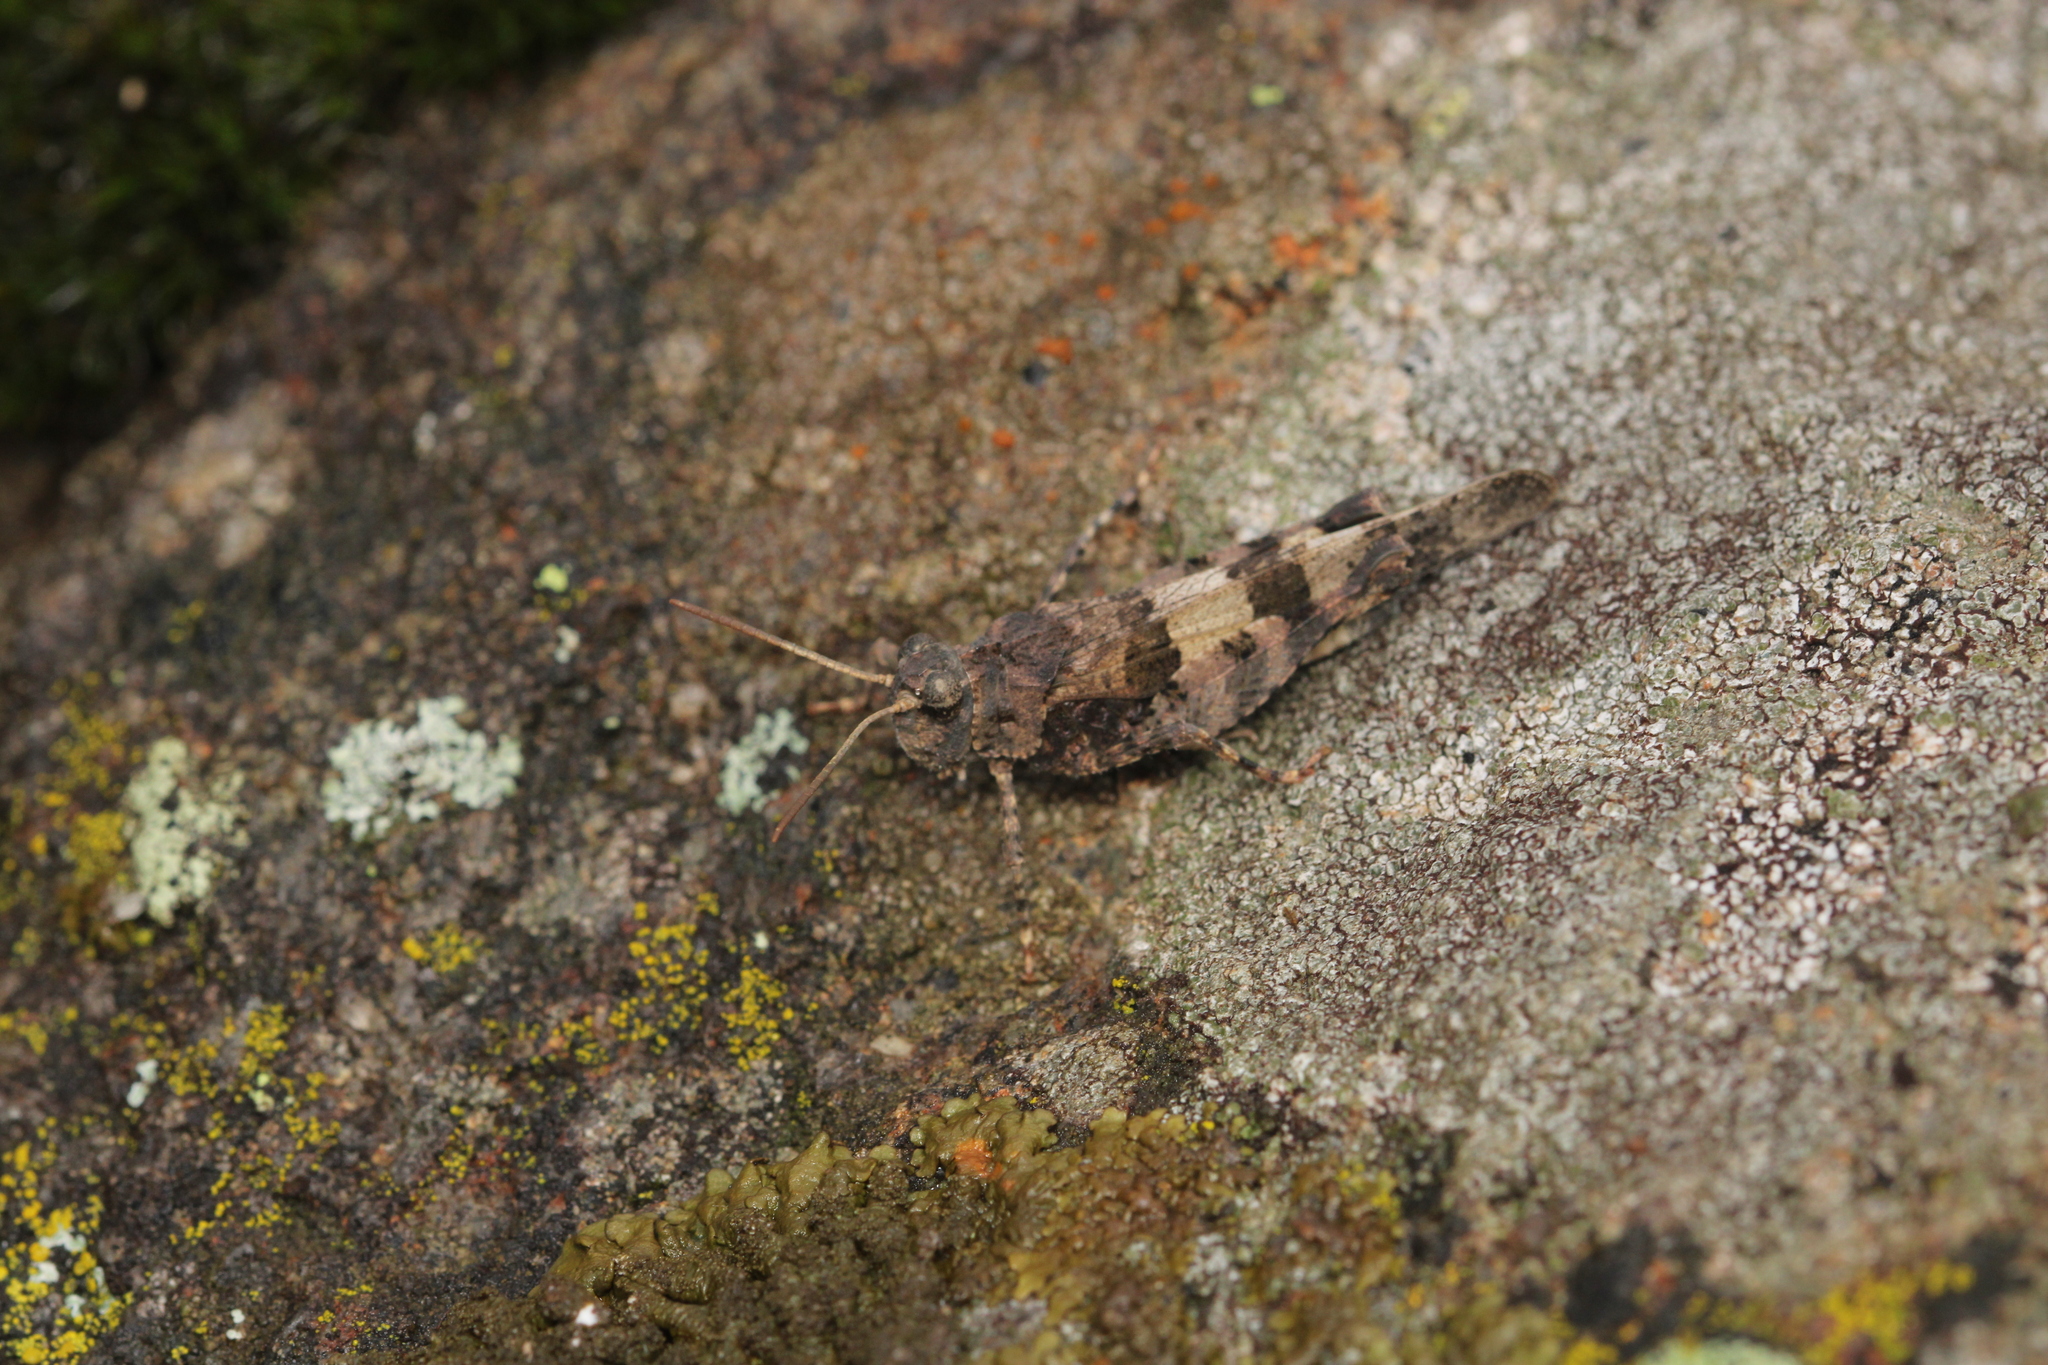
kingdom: Animalia
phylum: Arthropoda
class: Insecta
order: Orthoptera
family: Acrididae
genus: Oedipoda
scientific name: Oedipoda caerulescens
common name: Blue-winged grasshopper
